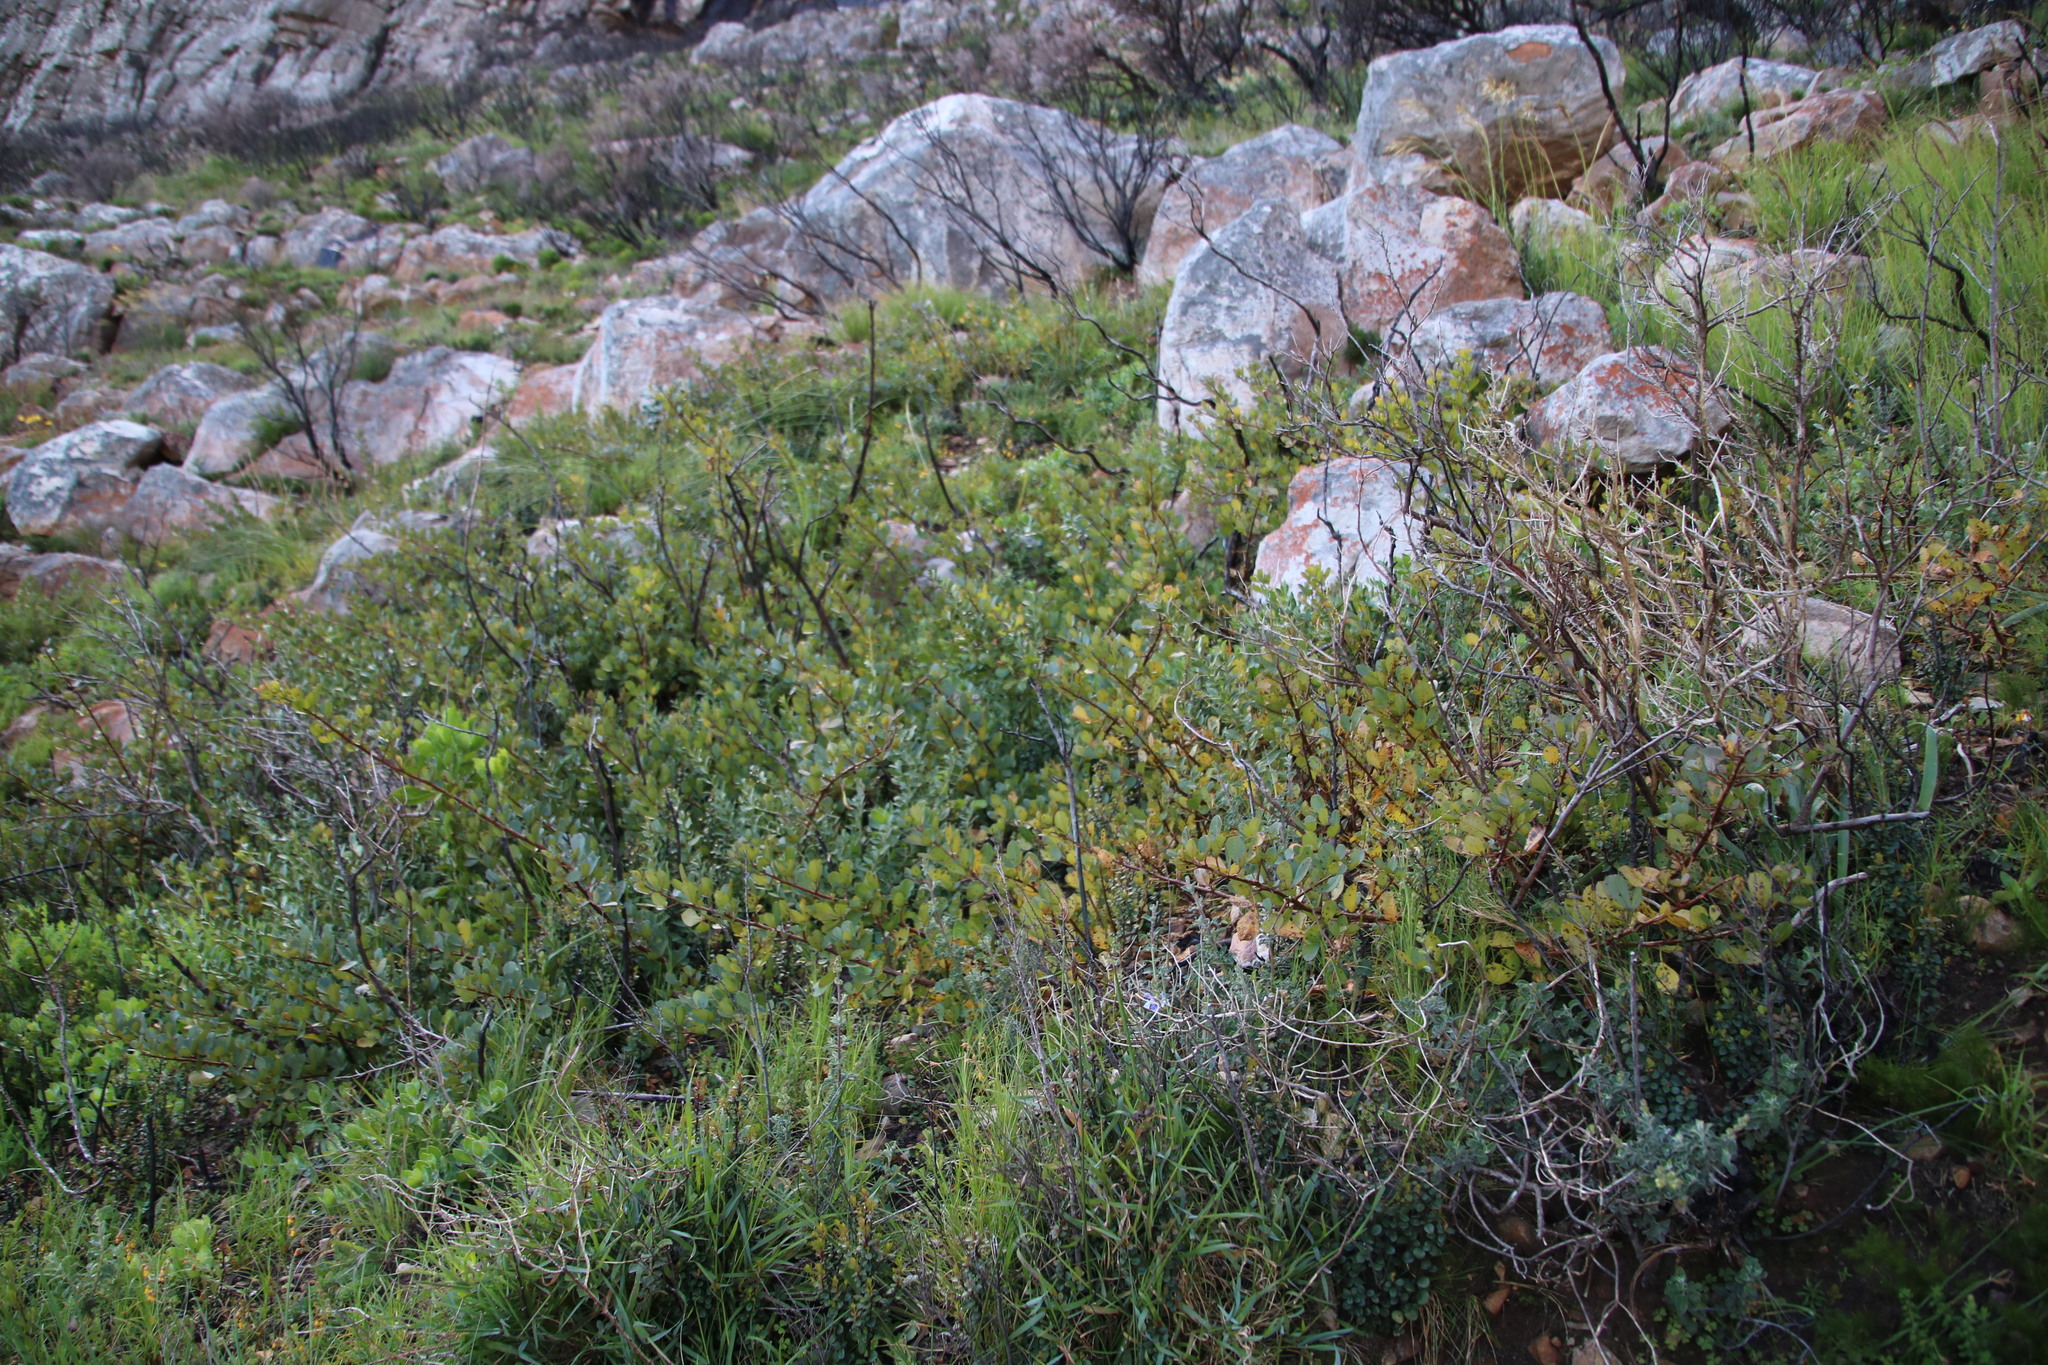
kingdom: Plantae
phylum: Tracheophyta
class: Magnoliopsida
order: Sapindales
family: Anacardiaceae
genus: Searsia
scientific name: Searsia laevigata
